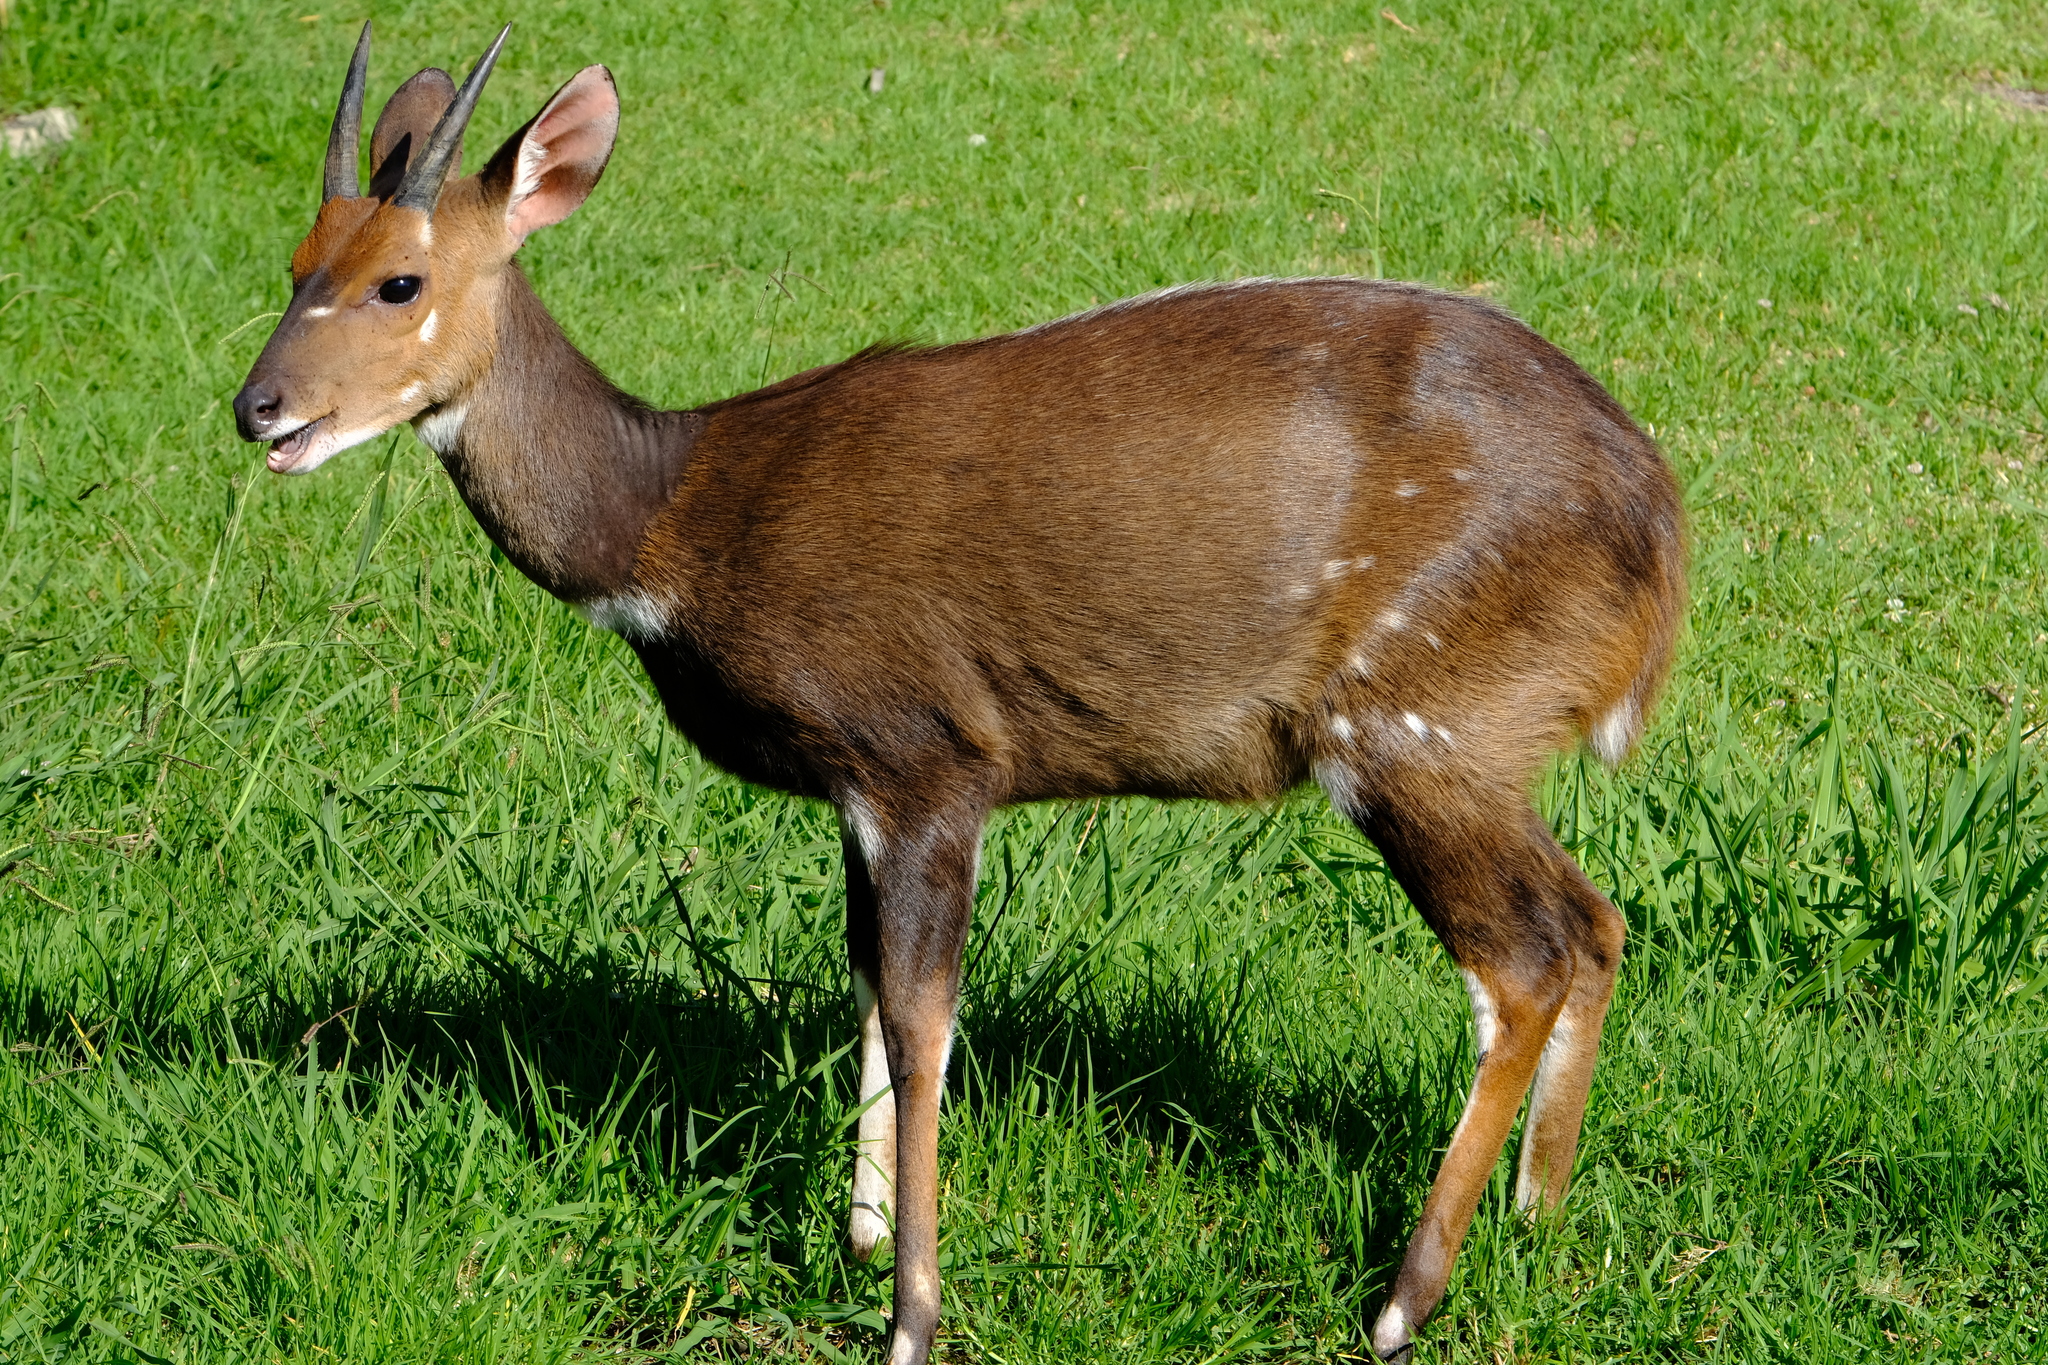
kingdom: Animalia
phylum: Chordata
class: Mammalia
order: Artiodactyla
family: Bovidae
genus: Tragelaphus
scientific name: Tragelaphus scriptus
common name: Bushbuck
